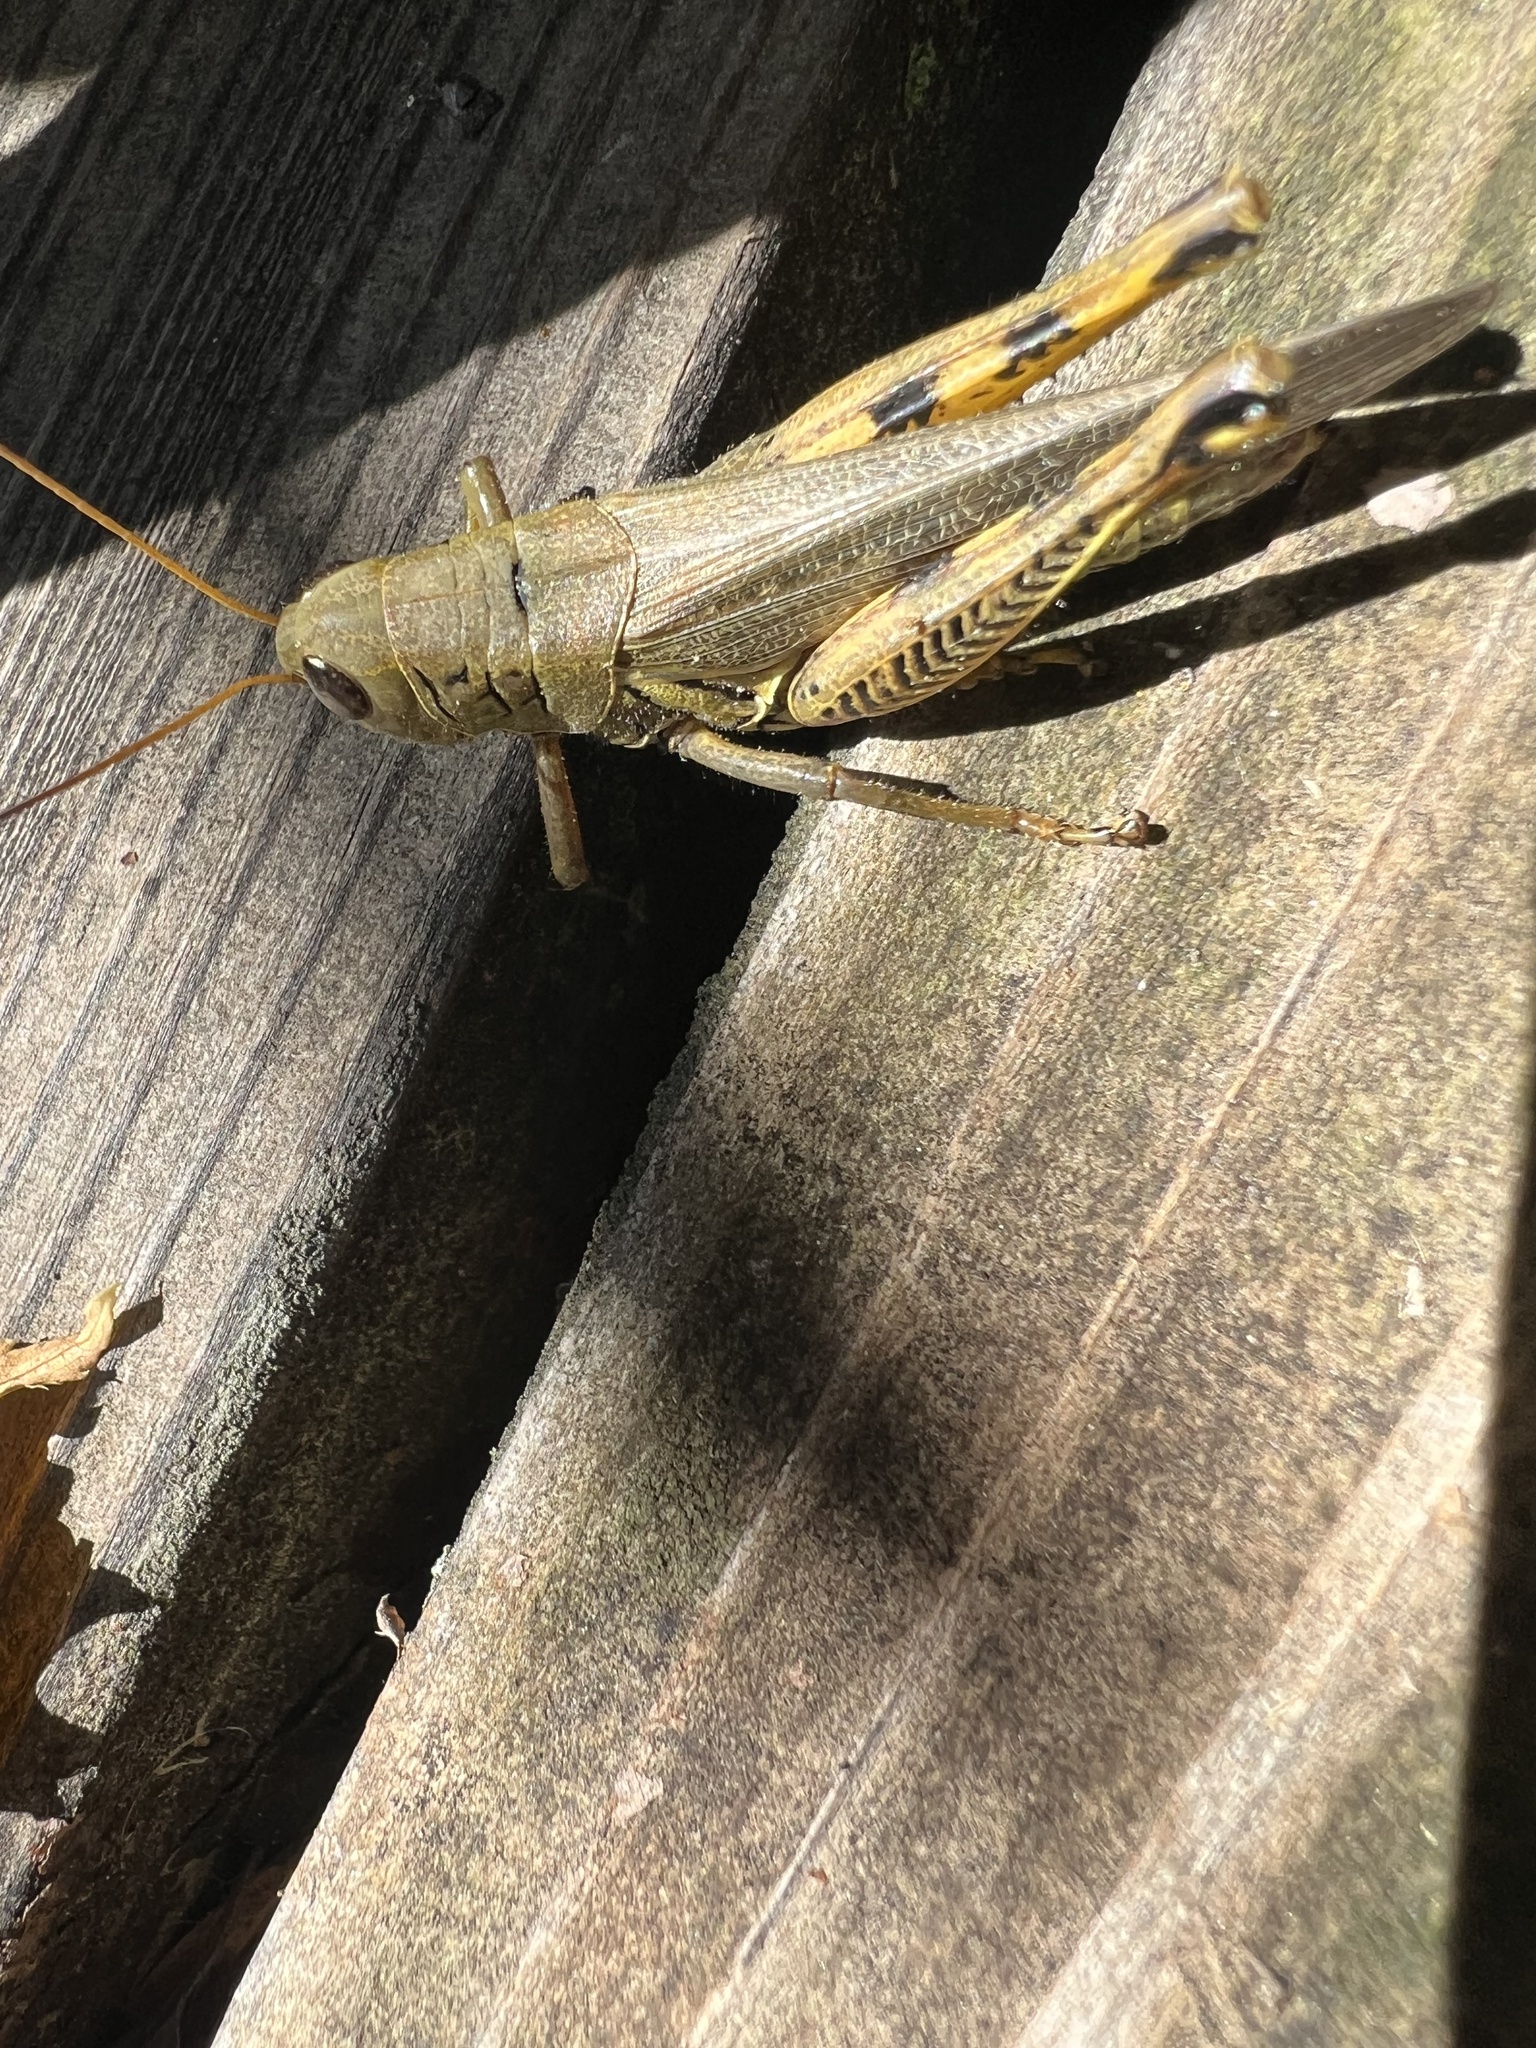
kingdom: Animalia
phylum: Arthropoda
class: Insecta
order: Orthoptera
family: Acrididae
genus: Melanoplus
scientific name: Melanoplus differentialis
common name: Differential grasshopper
